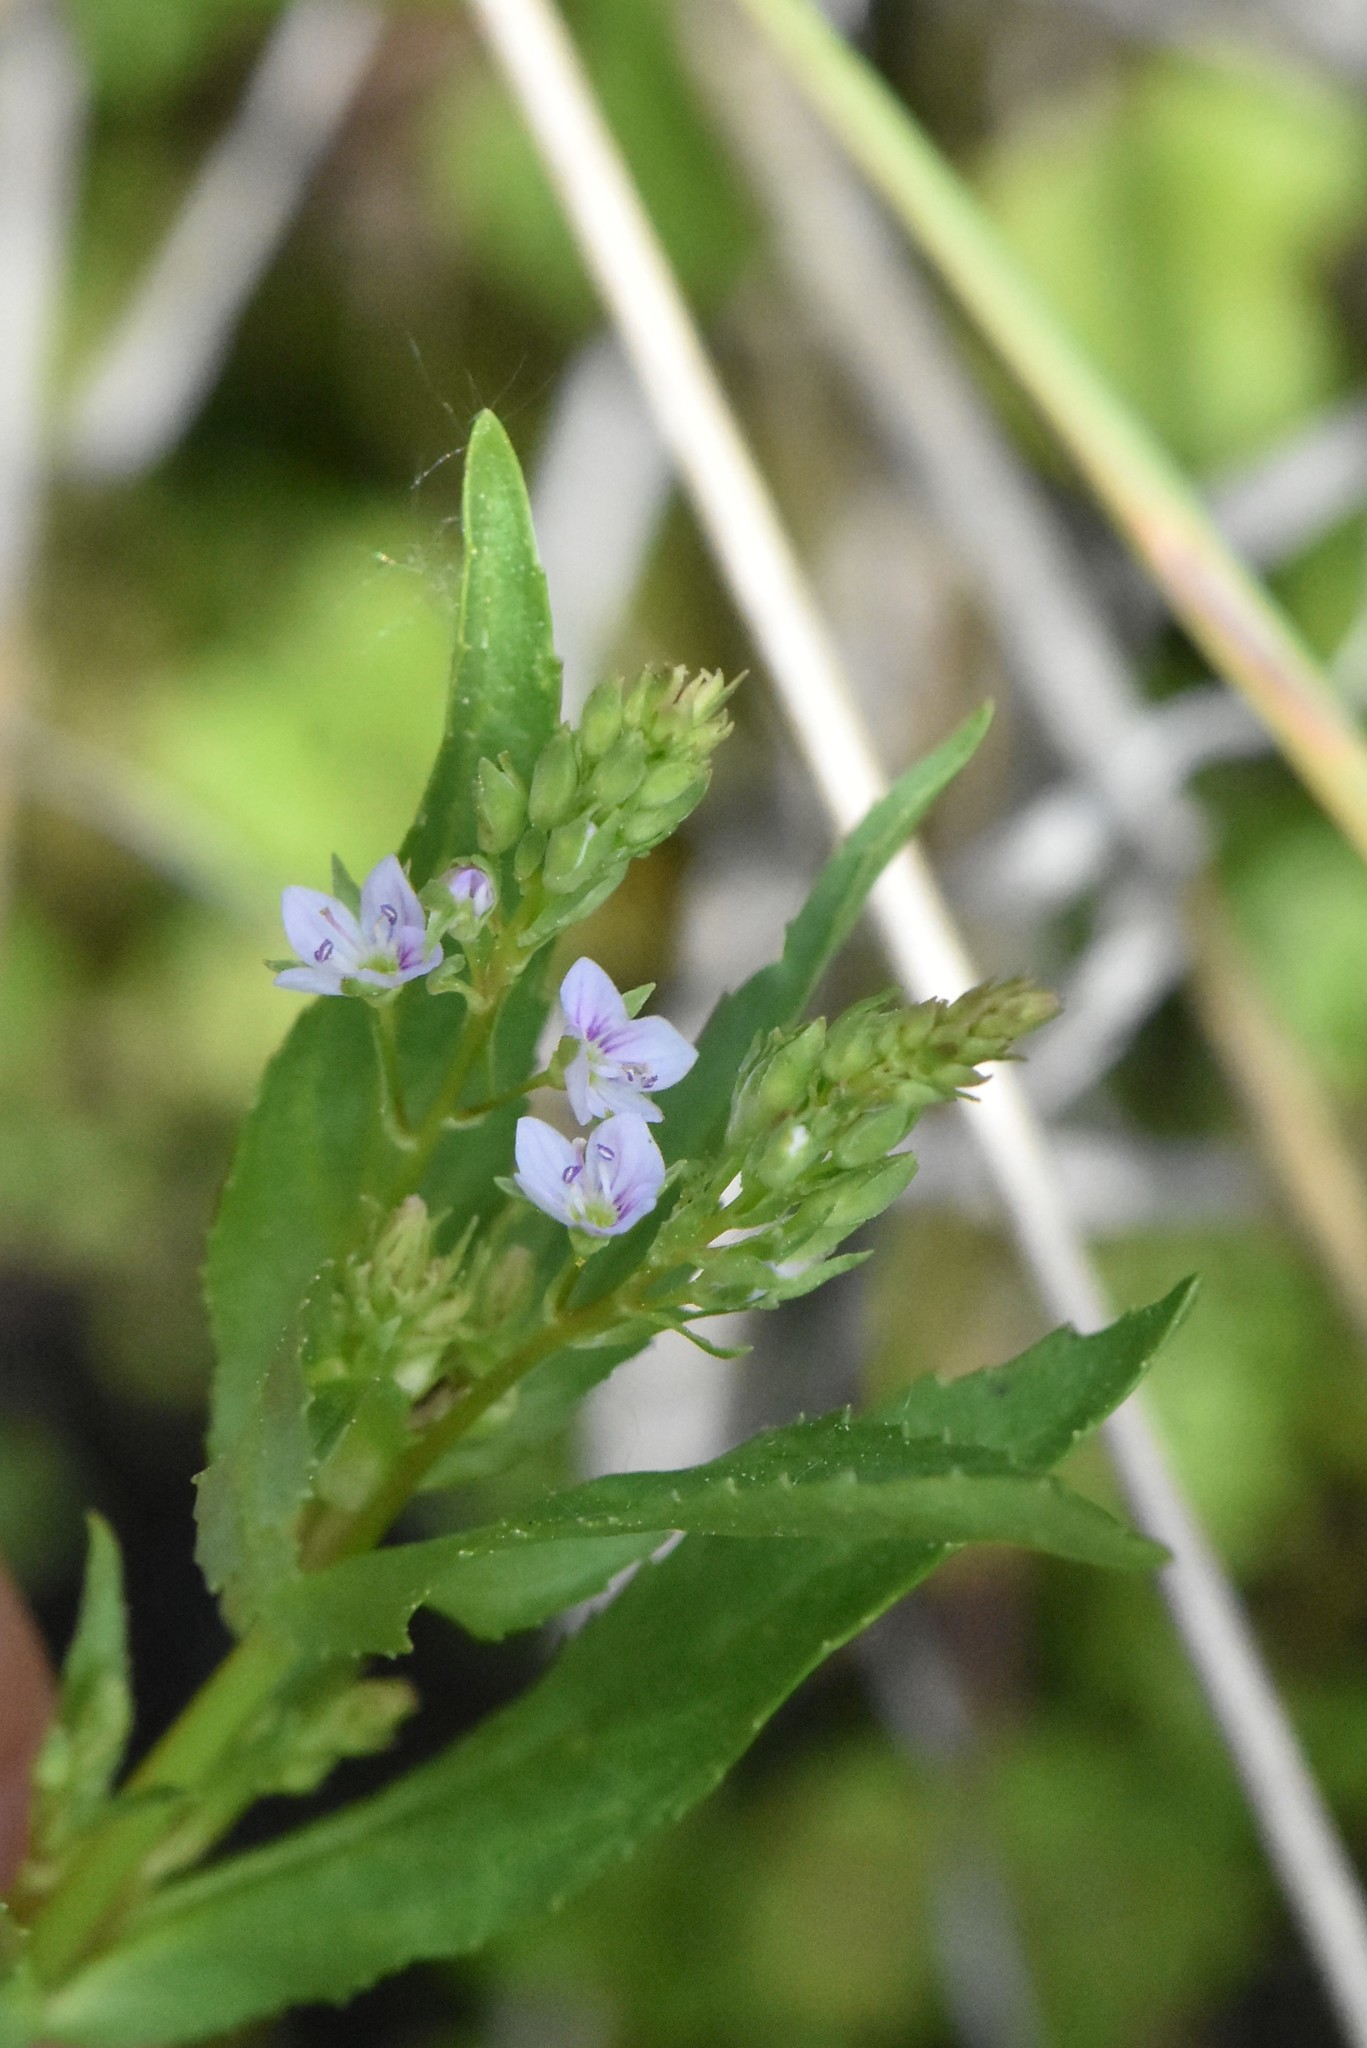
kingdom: Plantae
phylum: Tracheophyta
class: Magnoliopsida
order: Lamiales
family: Plantaginaceae
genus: Veronica
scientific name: Veronica anagallis-aquatica
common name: Water speedwell
